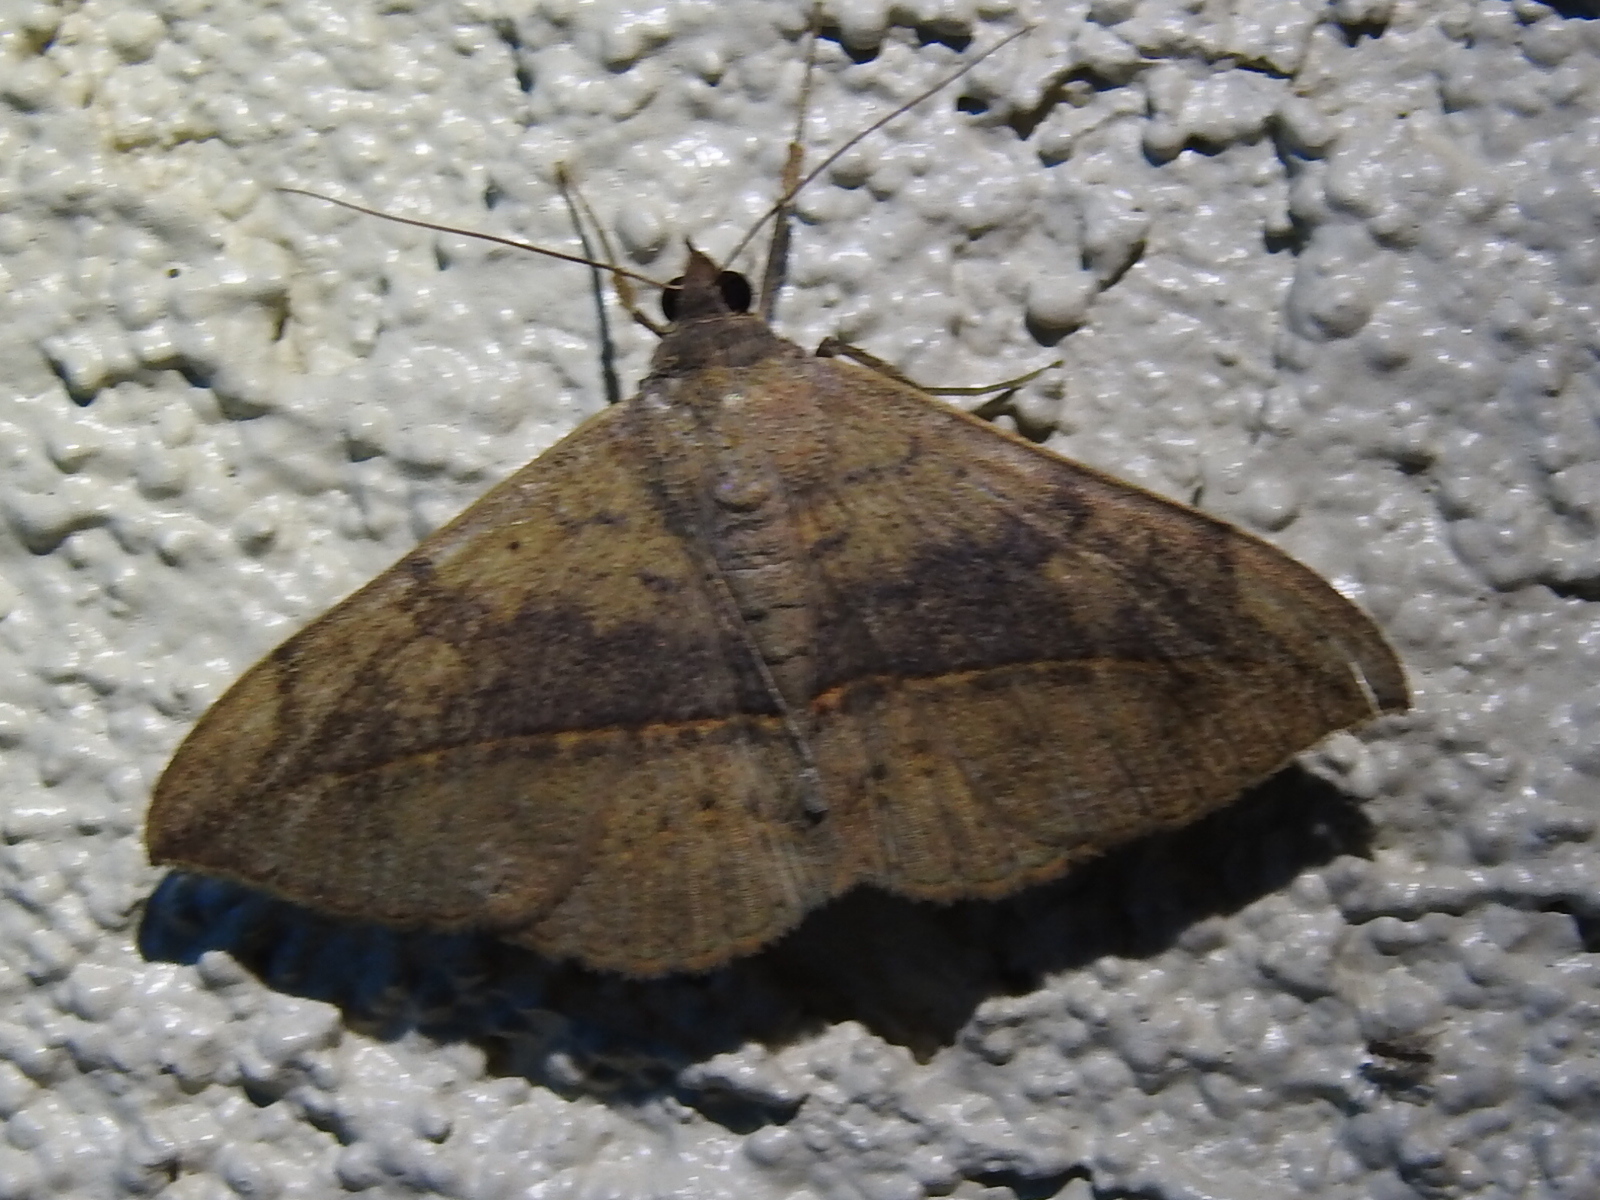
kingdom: Animalia
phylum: Arthropoda
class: Insecta
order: Lepidoptera
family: Erebidae
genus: Anticarsia
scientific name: Anticarsia gemmatalis
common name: Cutworm moth
